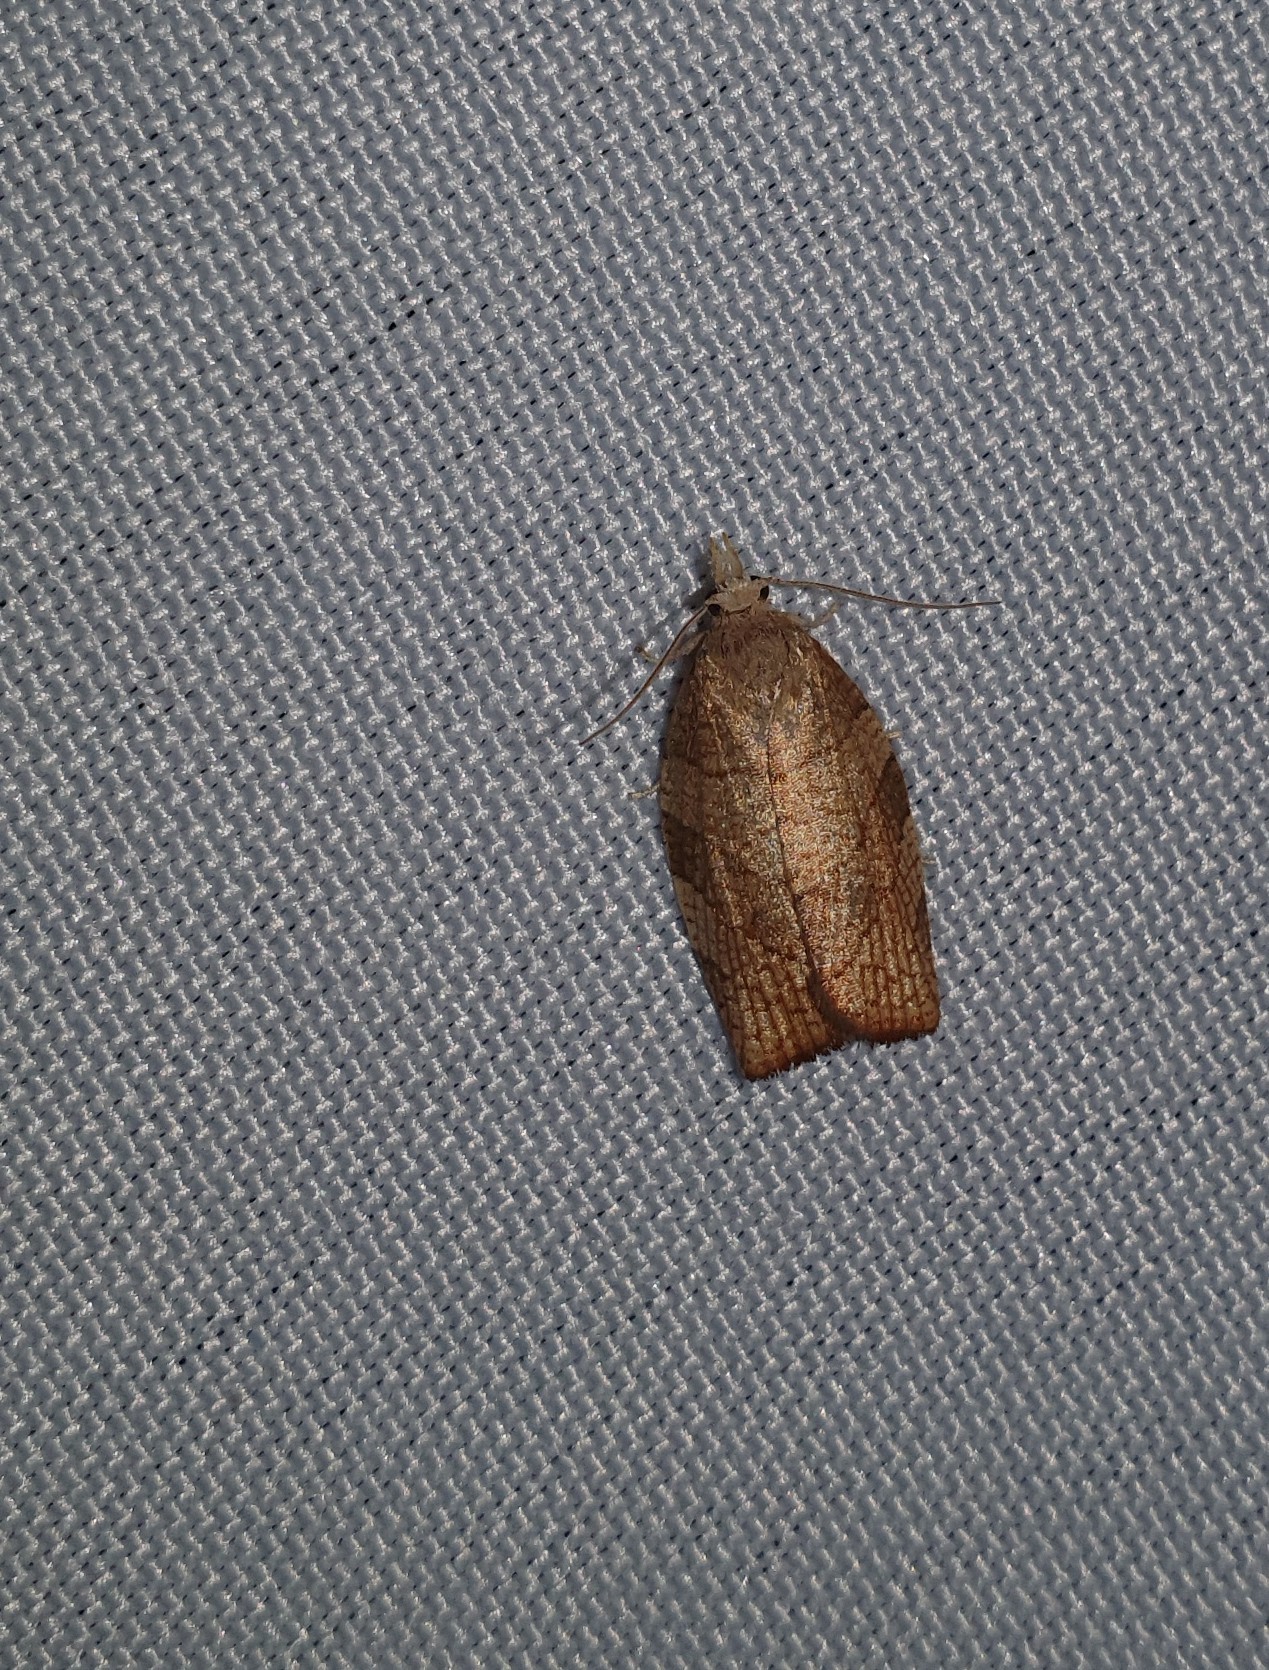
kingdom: Animalia
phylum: Arthropoda
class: Insecta
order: Lepidoptera
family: Tortricidae
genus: Pandemis
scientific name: Pandemis corylana
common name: Chequered fruit-tree tortrix
